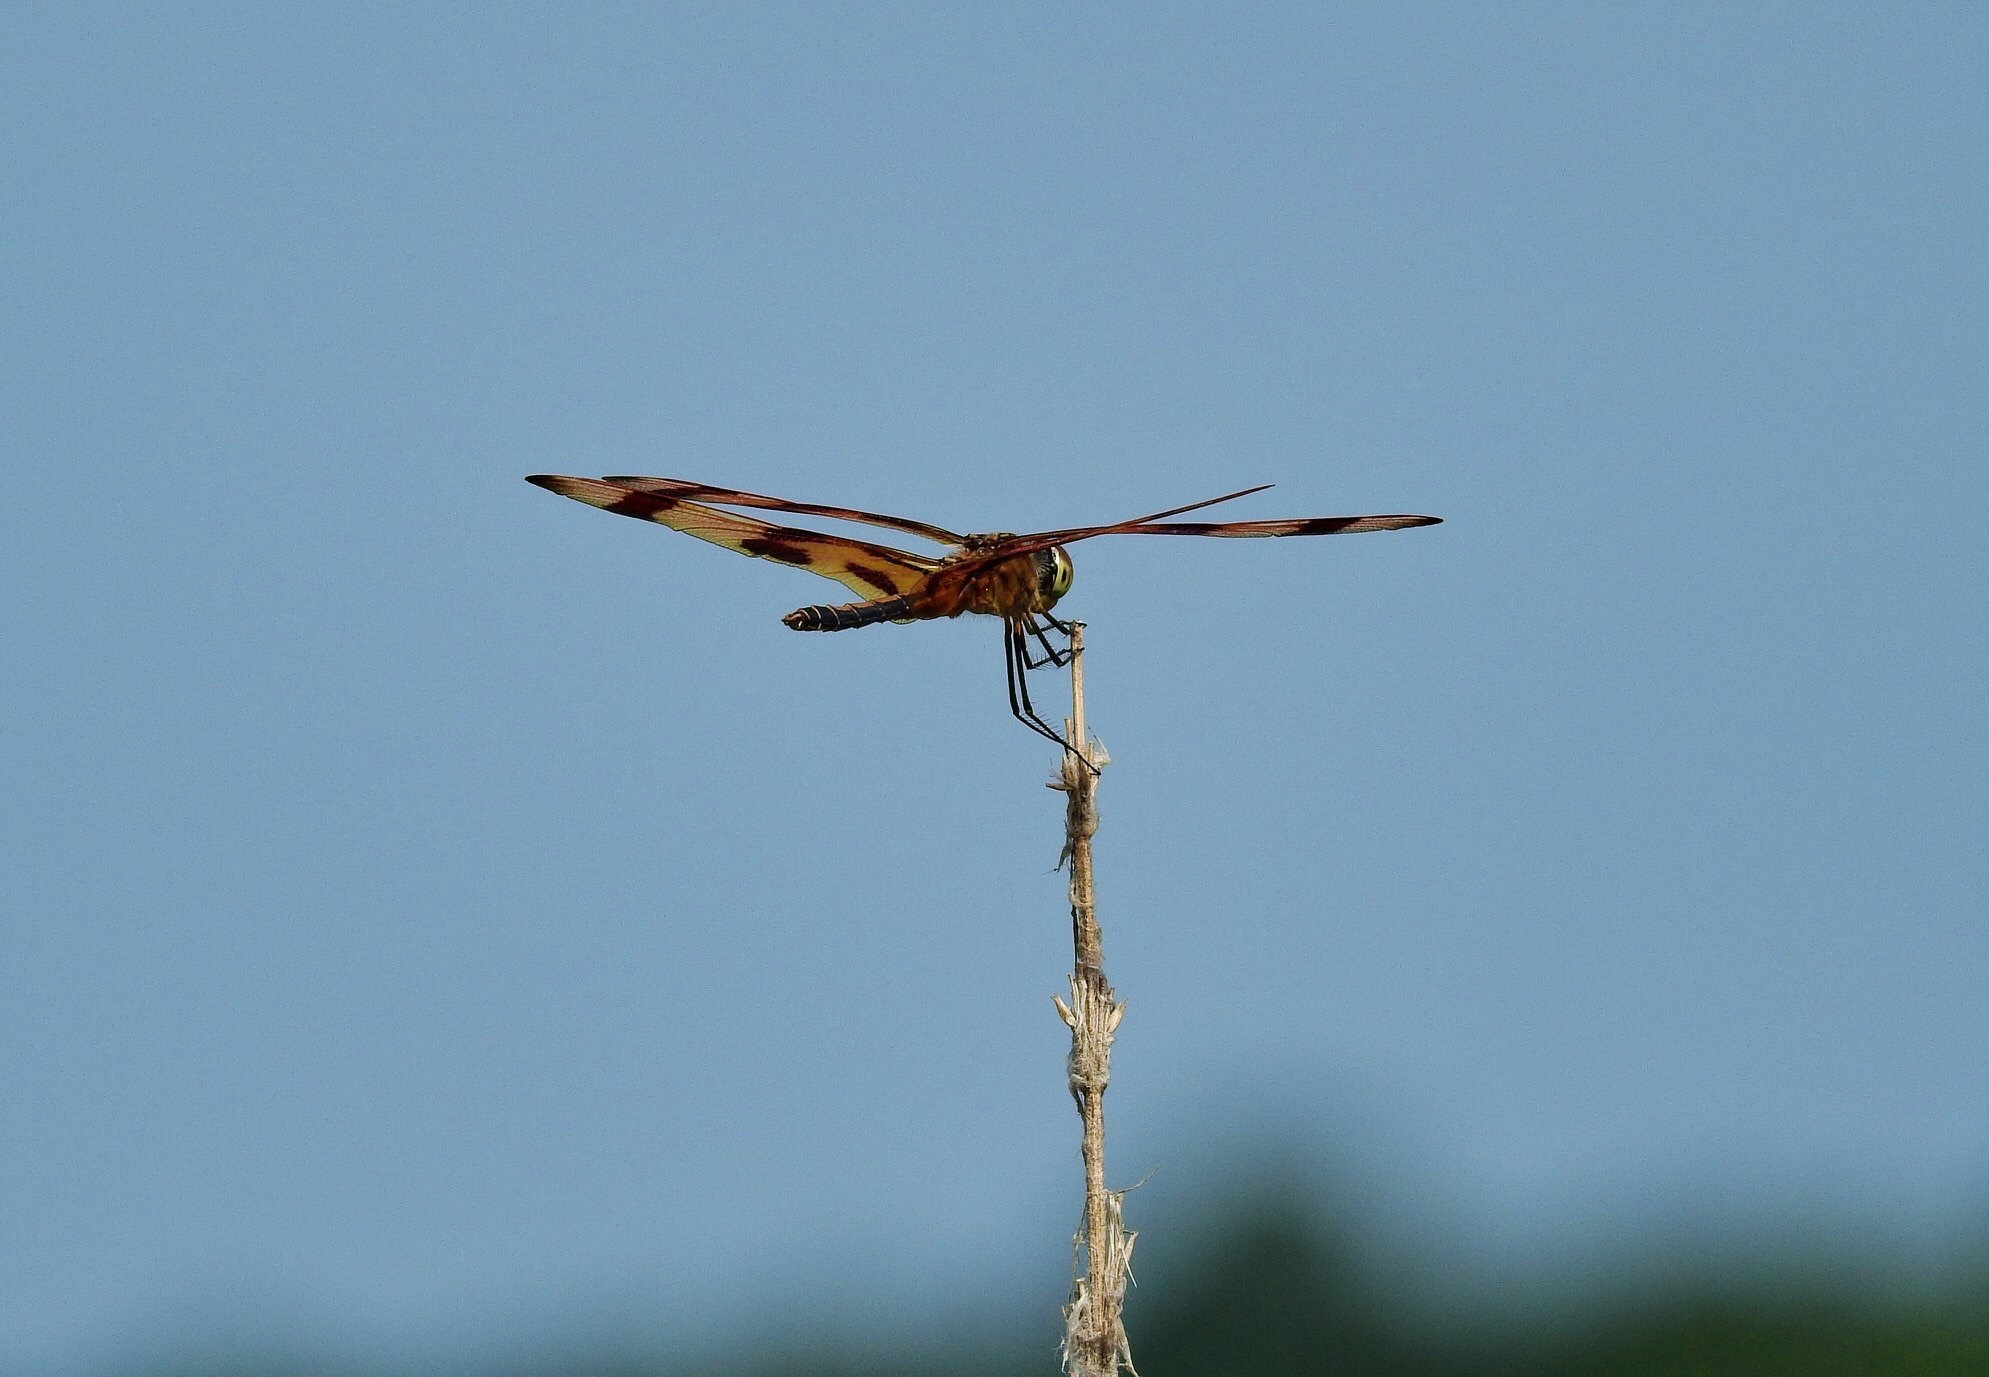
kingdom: Animalia
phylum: Arthropoda
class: Insecta
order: Odonata
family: Libellulidae
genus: Celithemis
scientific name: Celithemis eponina
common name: Halloween pennant
